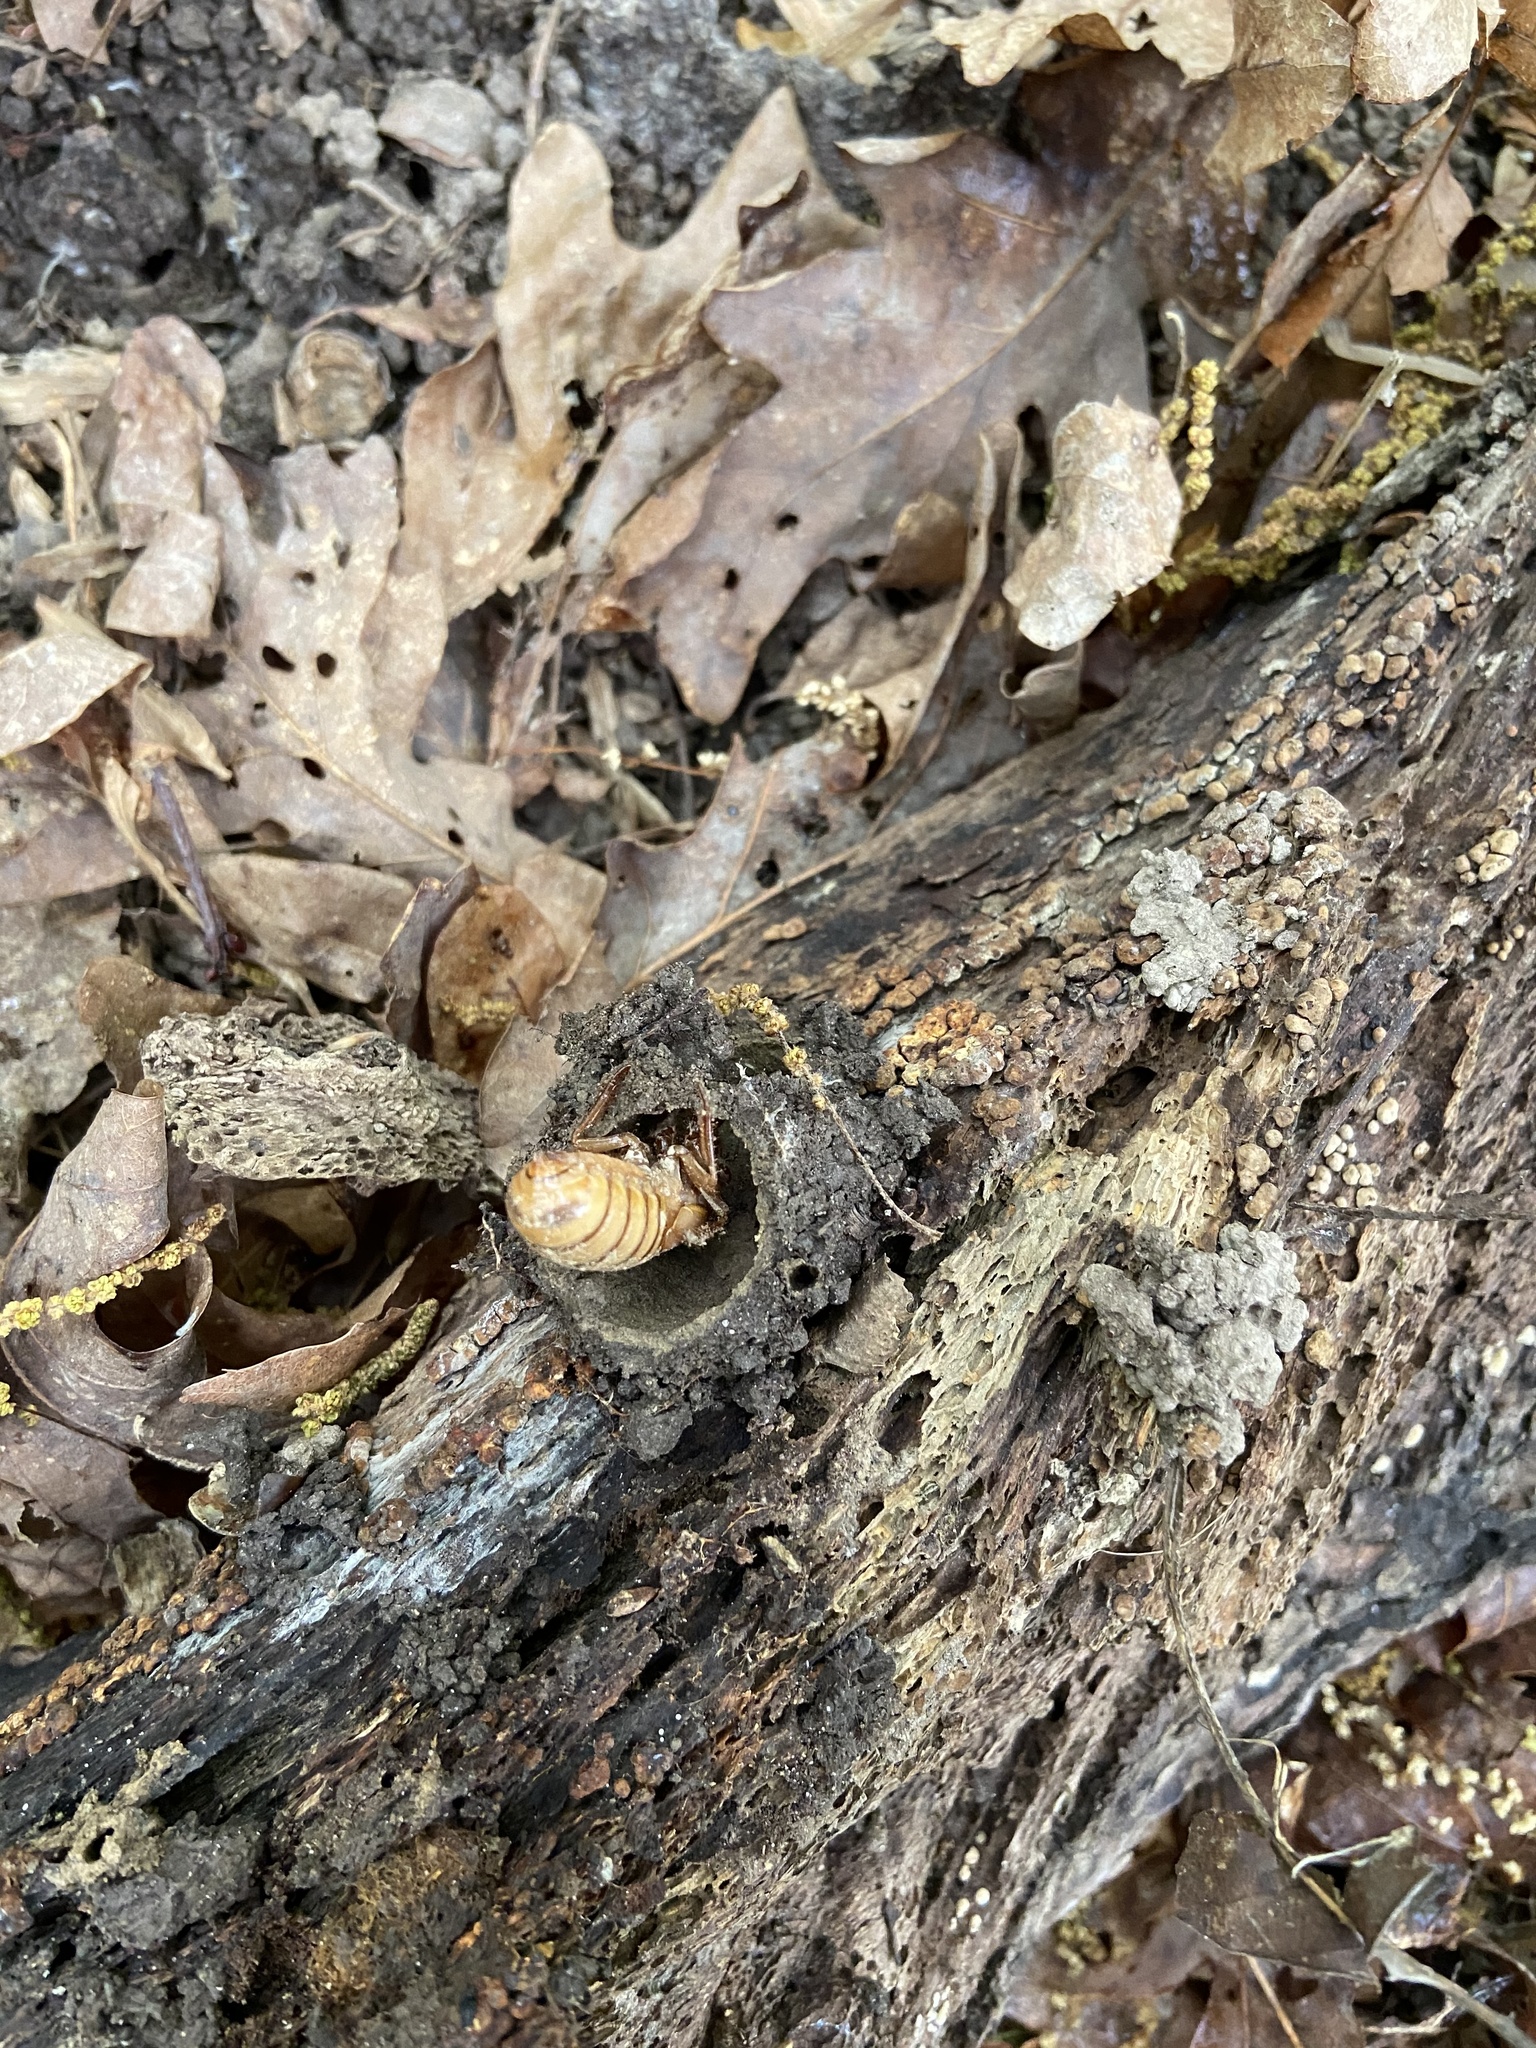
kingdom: Animalia
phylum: Arthropoda
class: Insecta
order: Hemiptera
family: Cicadidae
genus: Magicicada
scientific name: Magicicada
